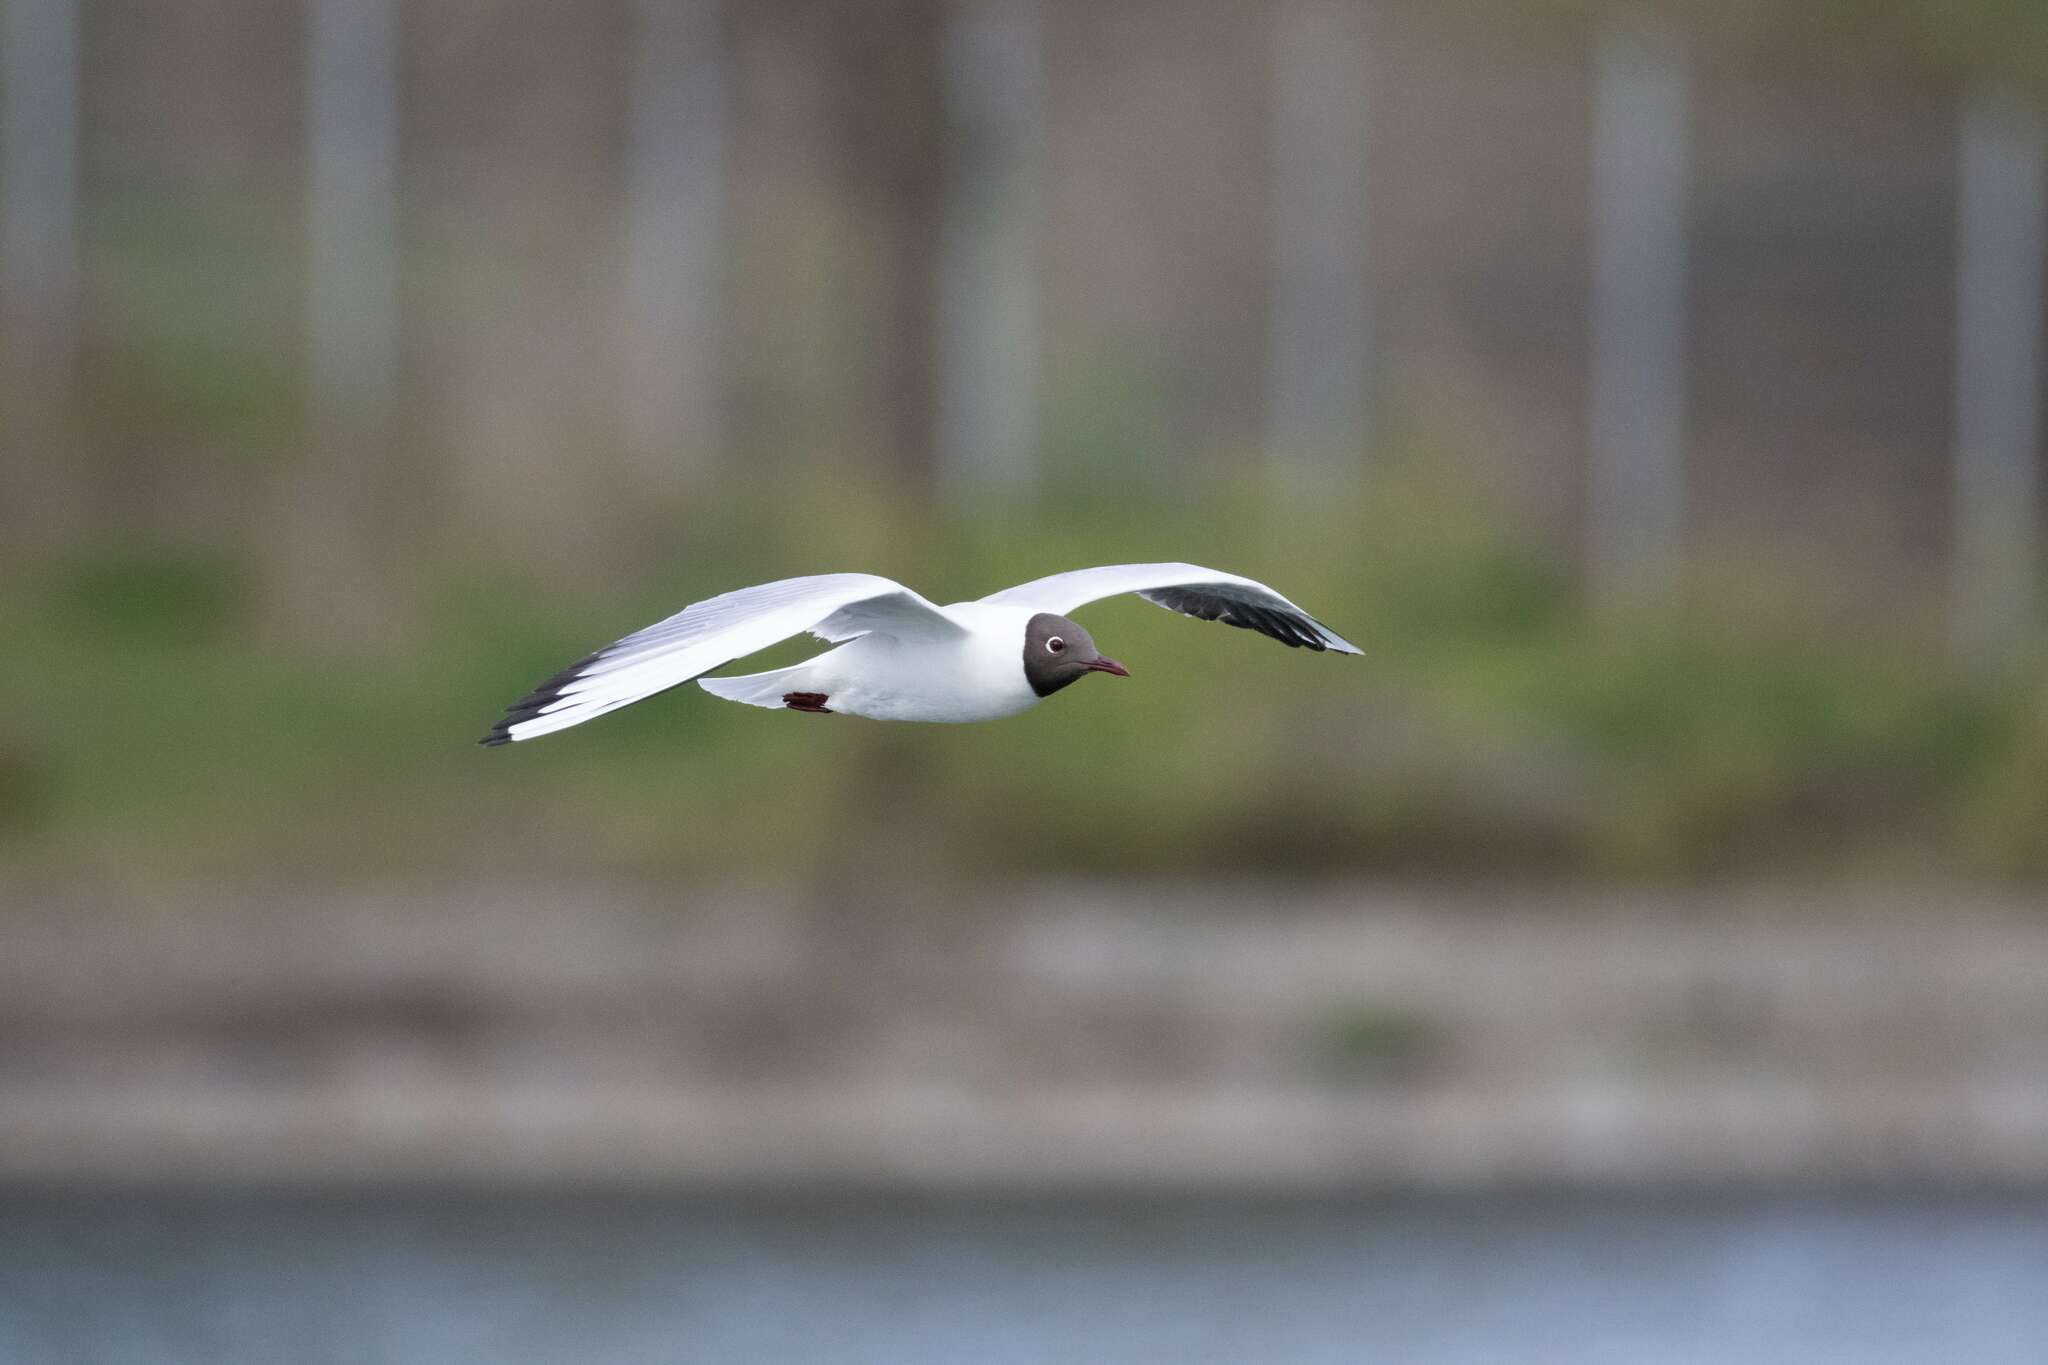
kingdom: Animalia
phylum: Chordata
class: Aves
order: Charadriiformes
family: Laridae
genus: Chroicocephalus
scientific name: Chroicocephalus ridibundus
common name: Black-headed gull
